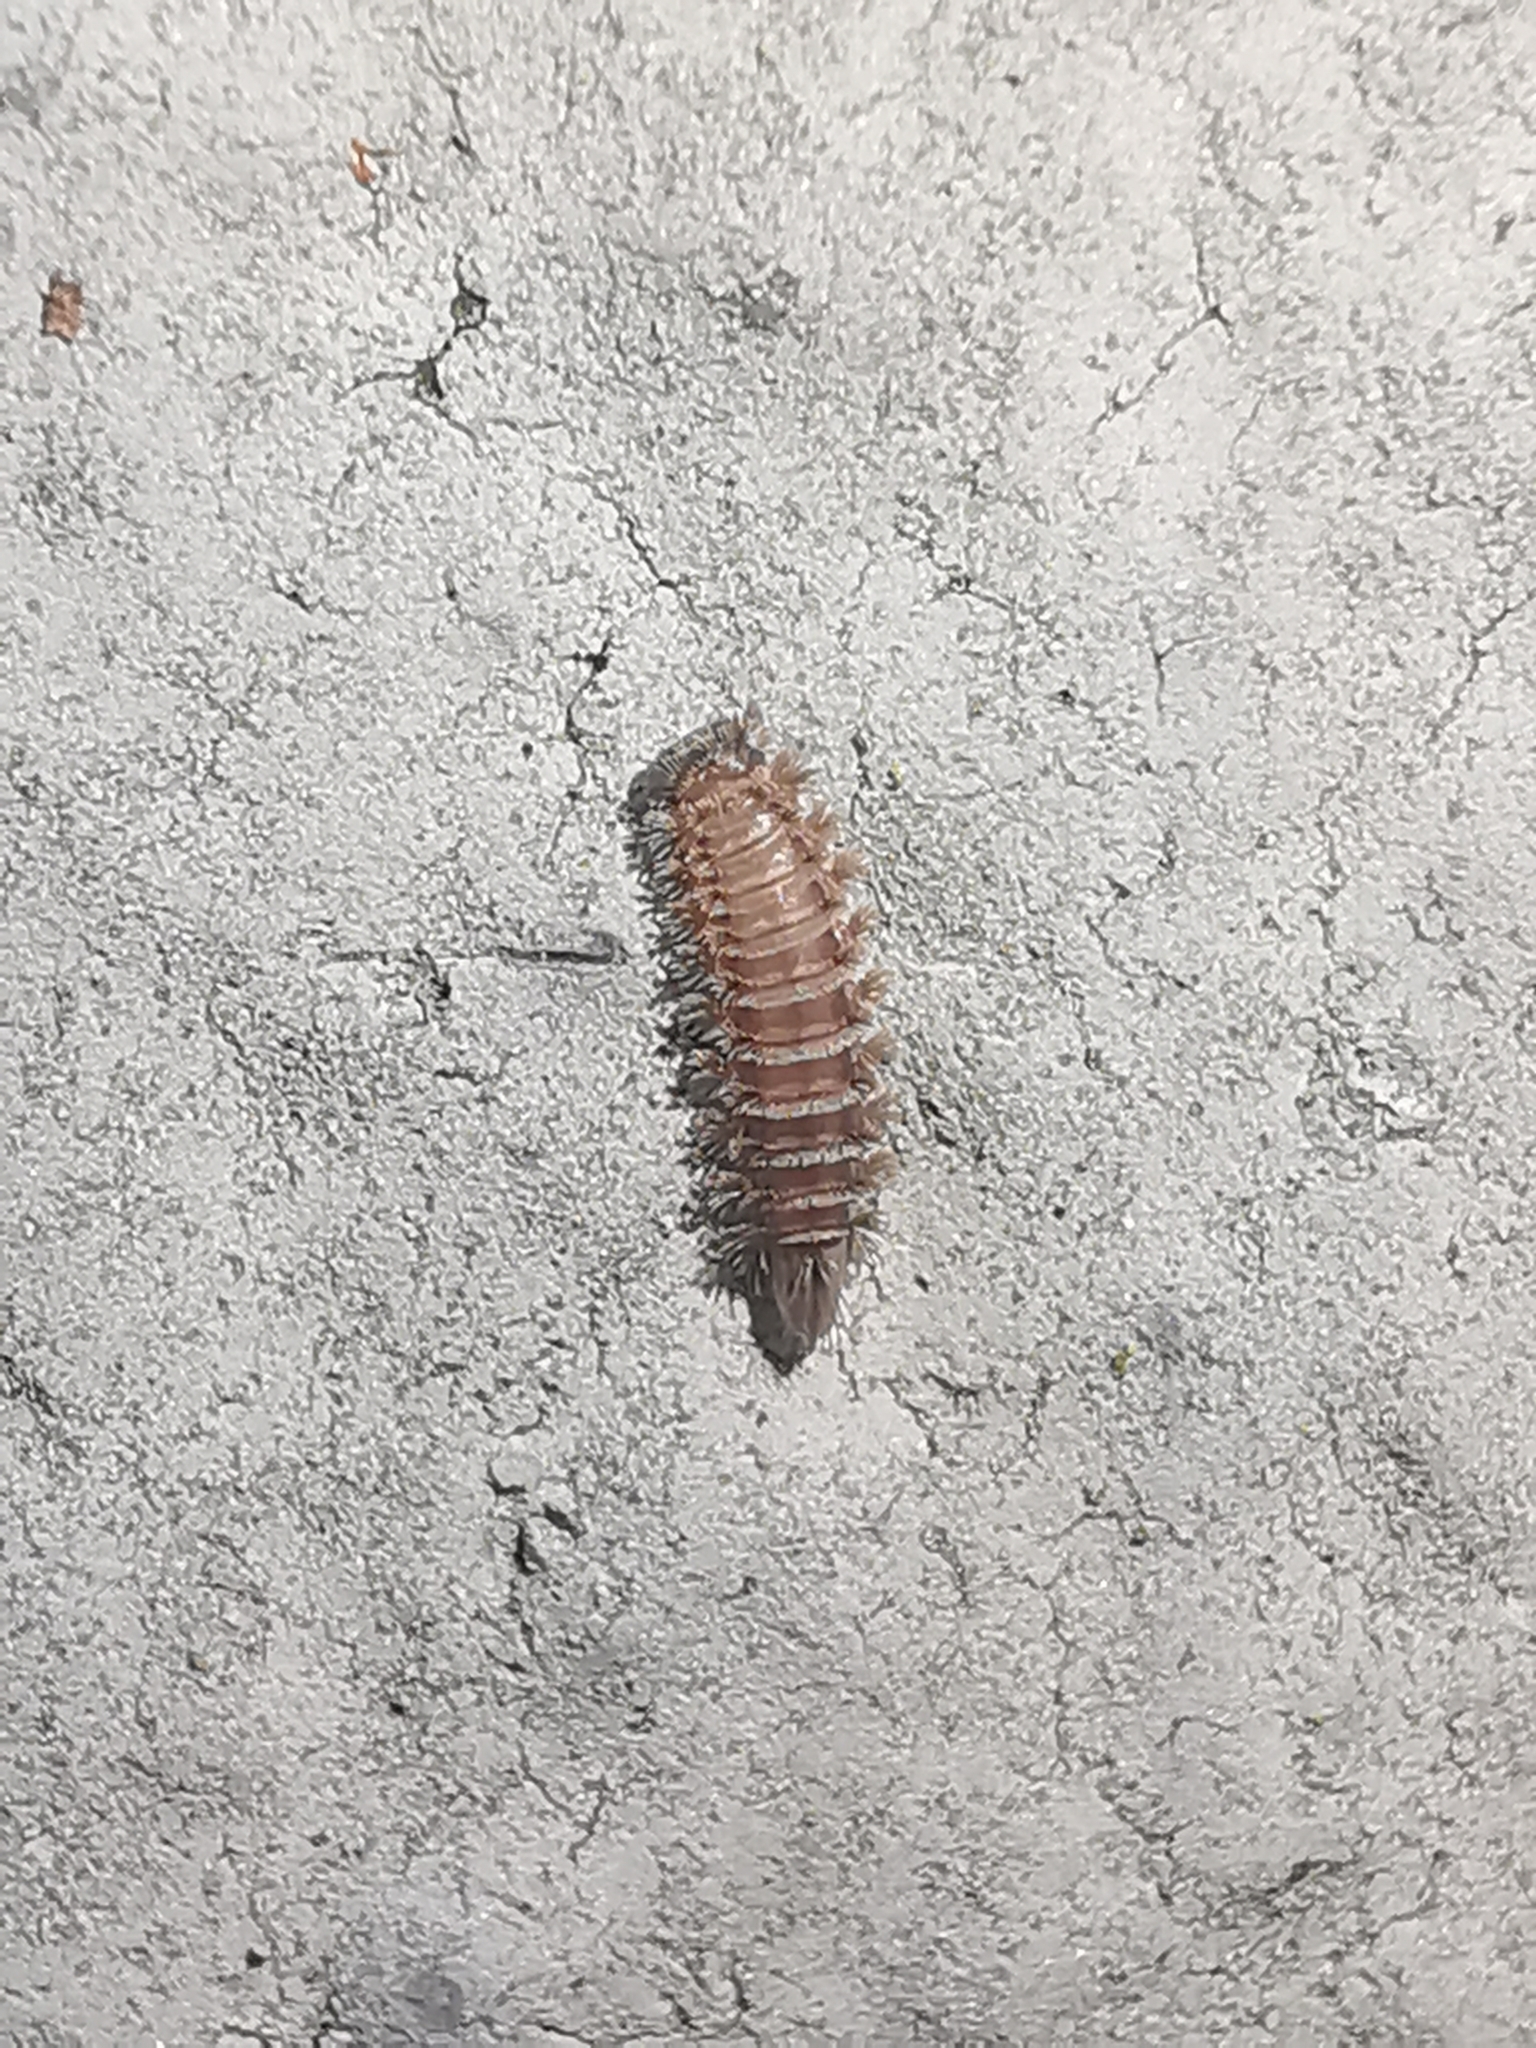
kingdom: Animalia
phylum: Arthropoda
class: Diplopoda
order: Polyxenida
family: Polyxenidae
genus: Polyxenus
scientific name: Polyxenus lagurus
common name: Bristly millipede
